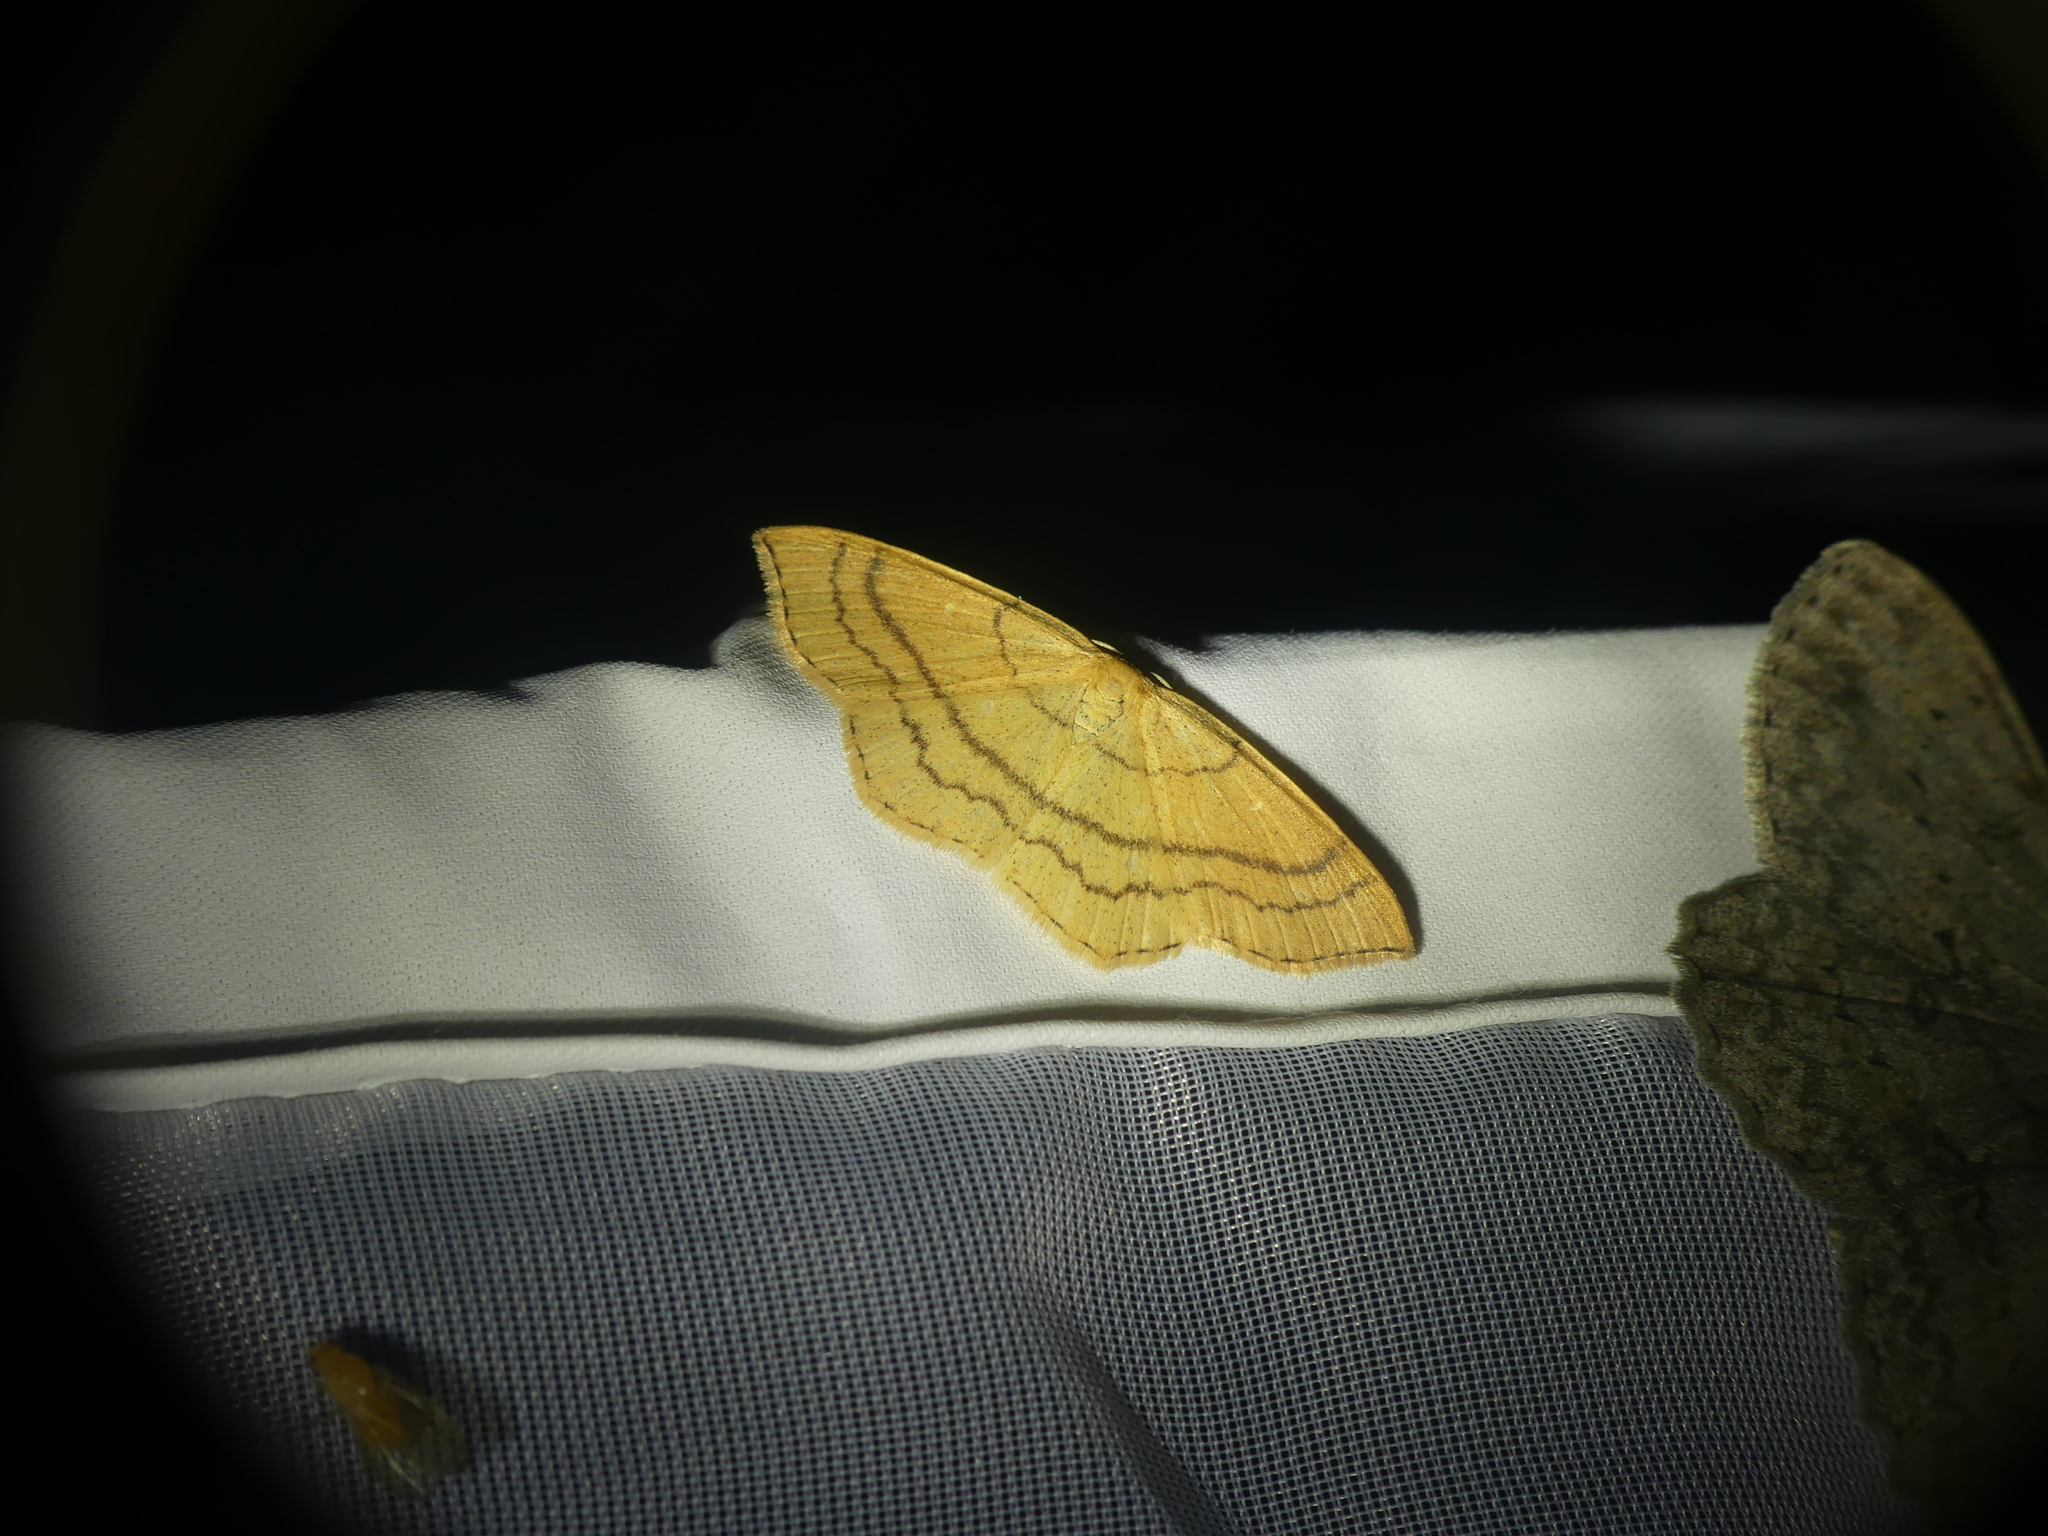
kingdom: Animalia
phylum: Arthropoda
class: Insecta
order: Lepidoptera
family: Geometridae
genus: Cyclophora
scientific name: Cyclophora linearia
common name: Clay triple-lines
